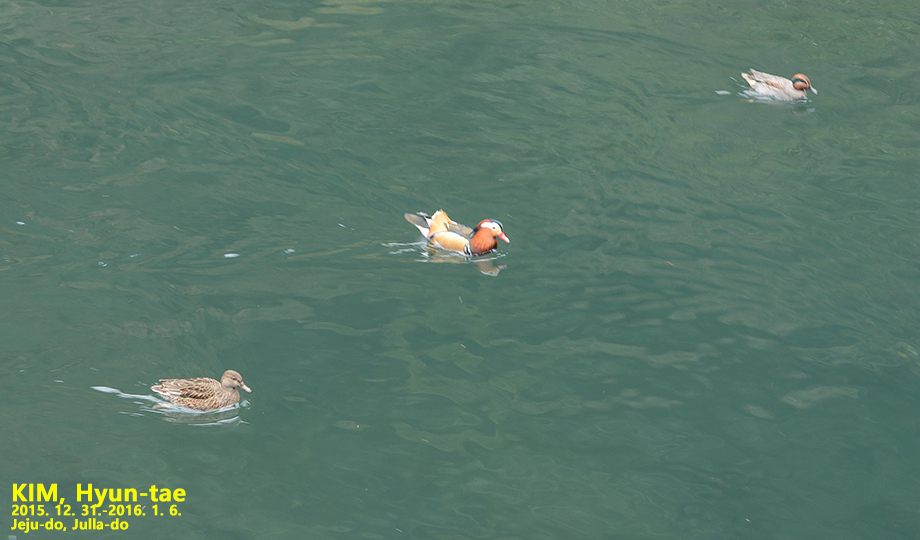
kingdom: Animalia
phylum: Chordata
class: Aves
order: Anseriformes
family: Anatidae
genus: Aix
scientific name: Aix galericulata
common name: Mandarin duck
